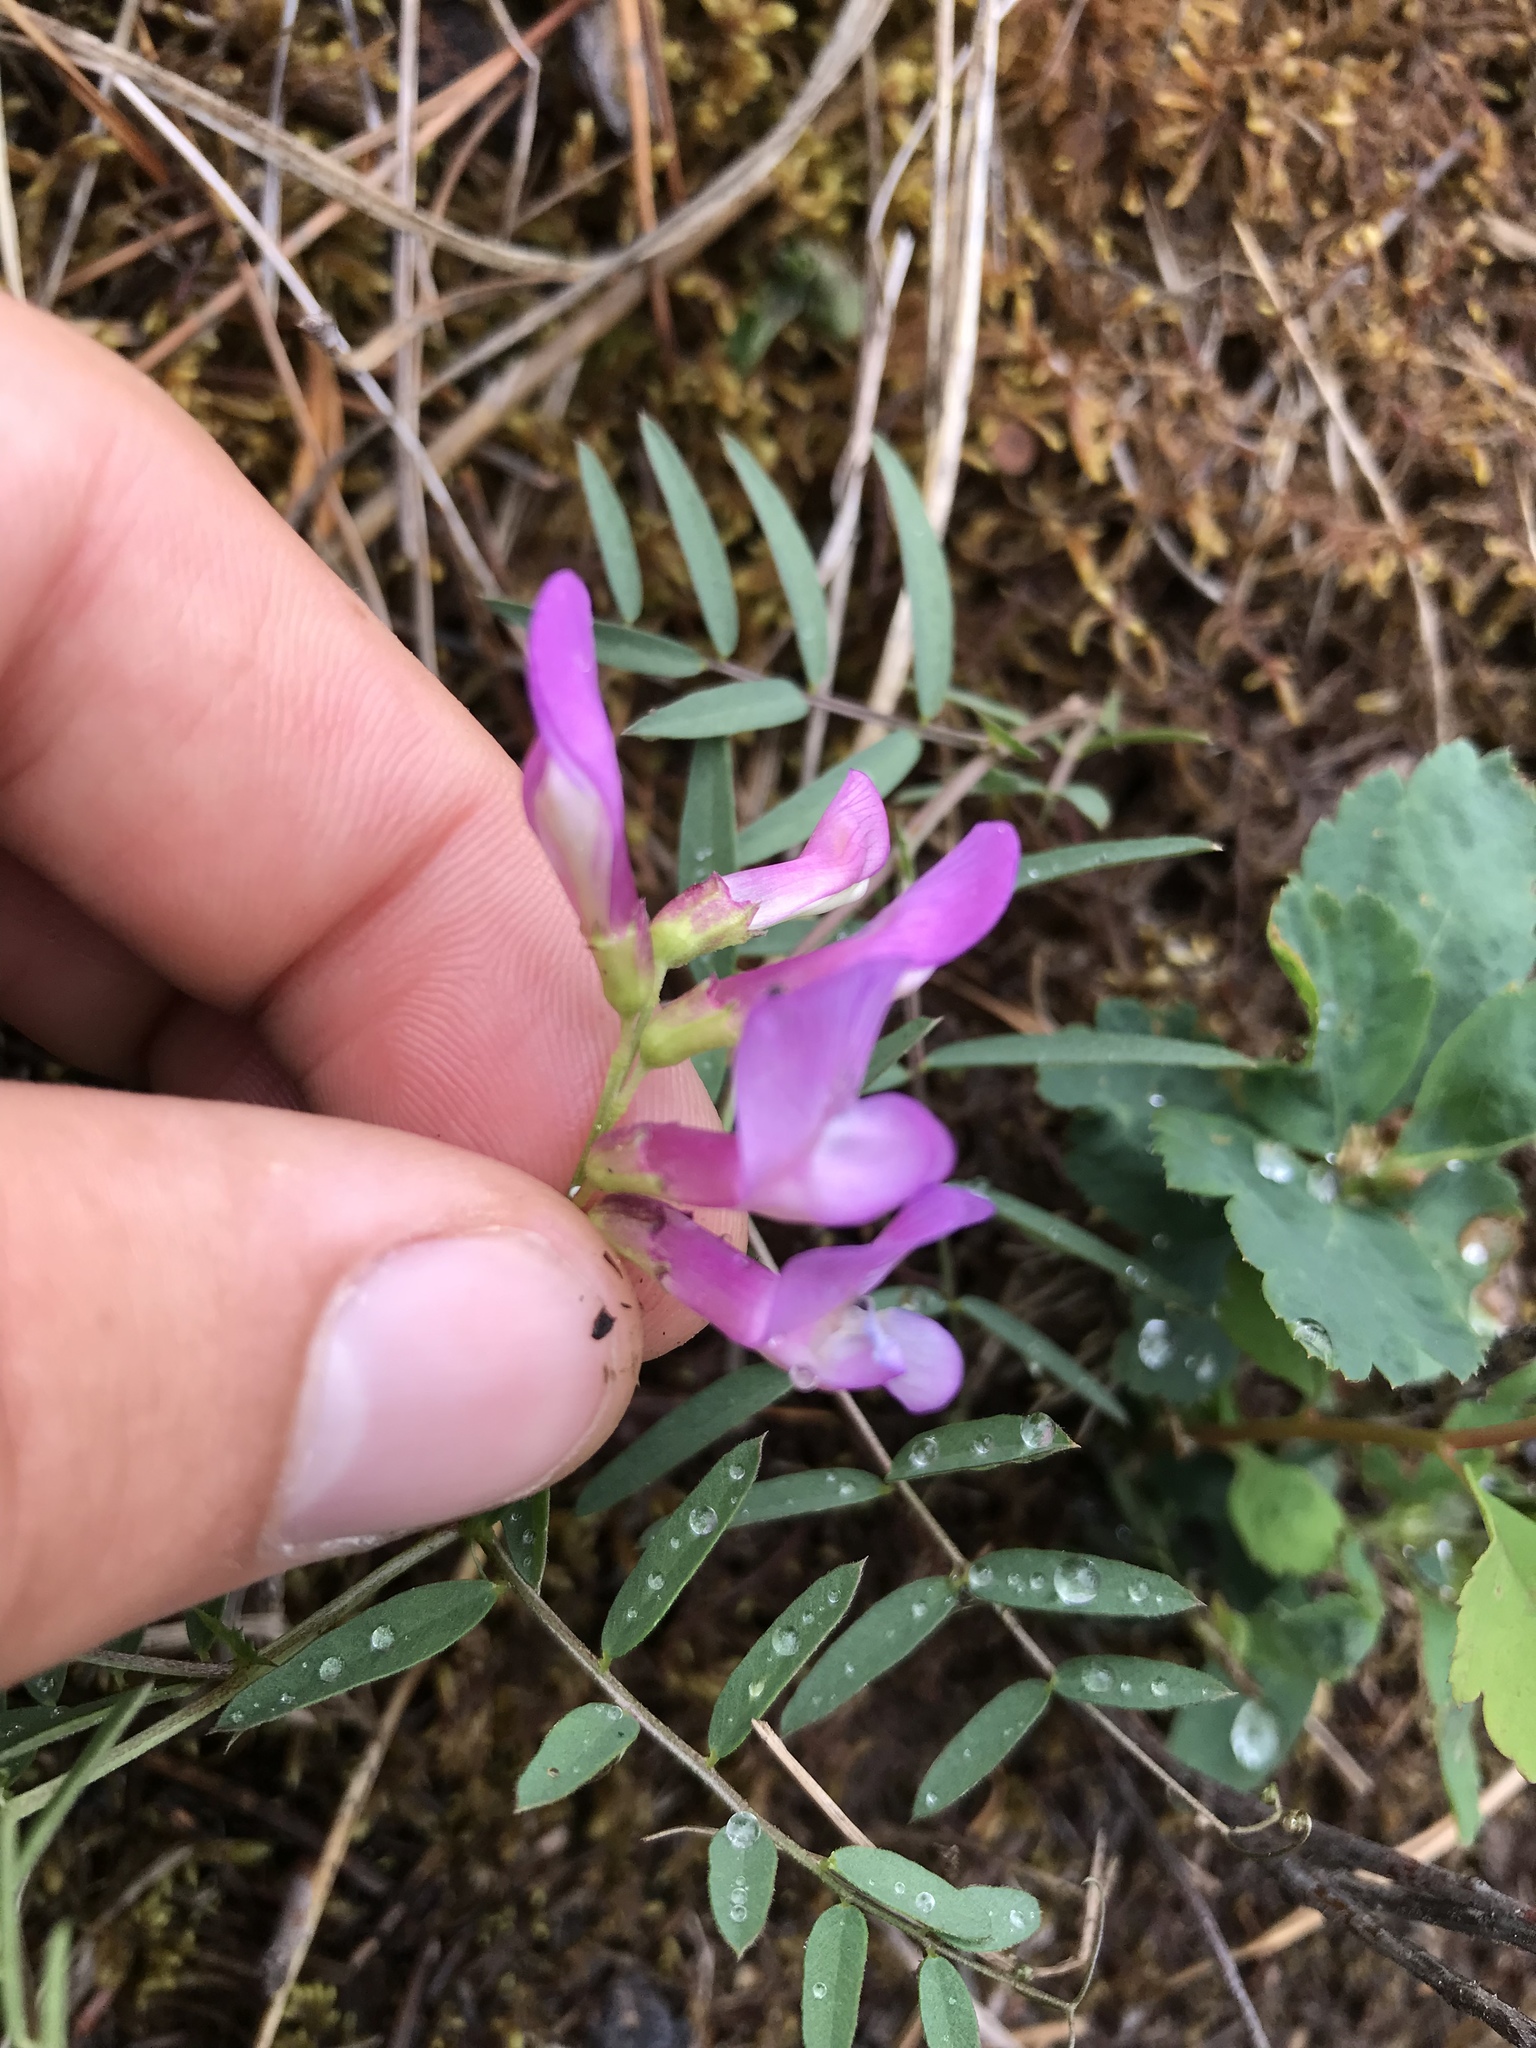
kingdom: Plantae
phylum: Tracheophyta
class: Magnoliopsida
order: Fabales
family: Fabaceae
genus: Vicia
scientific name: Vicia americana
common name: American vetch
